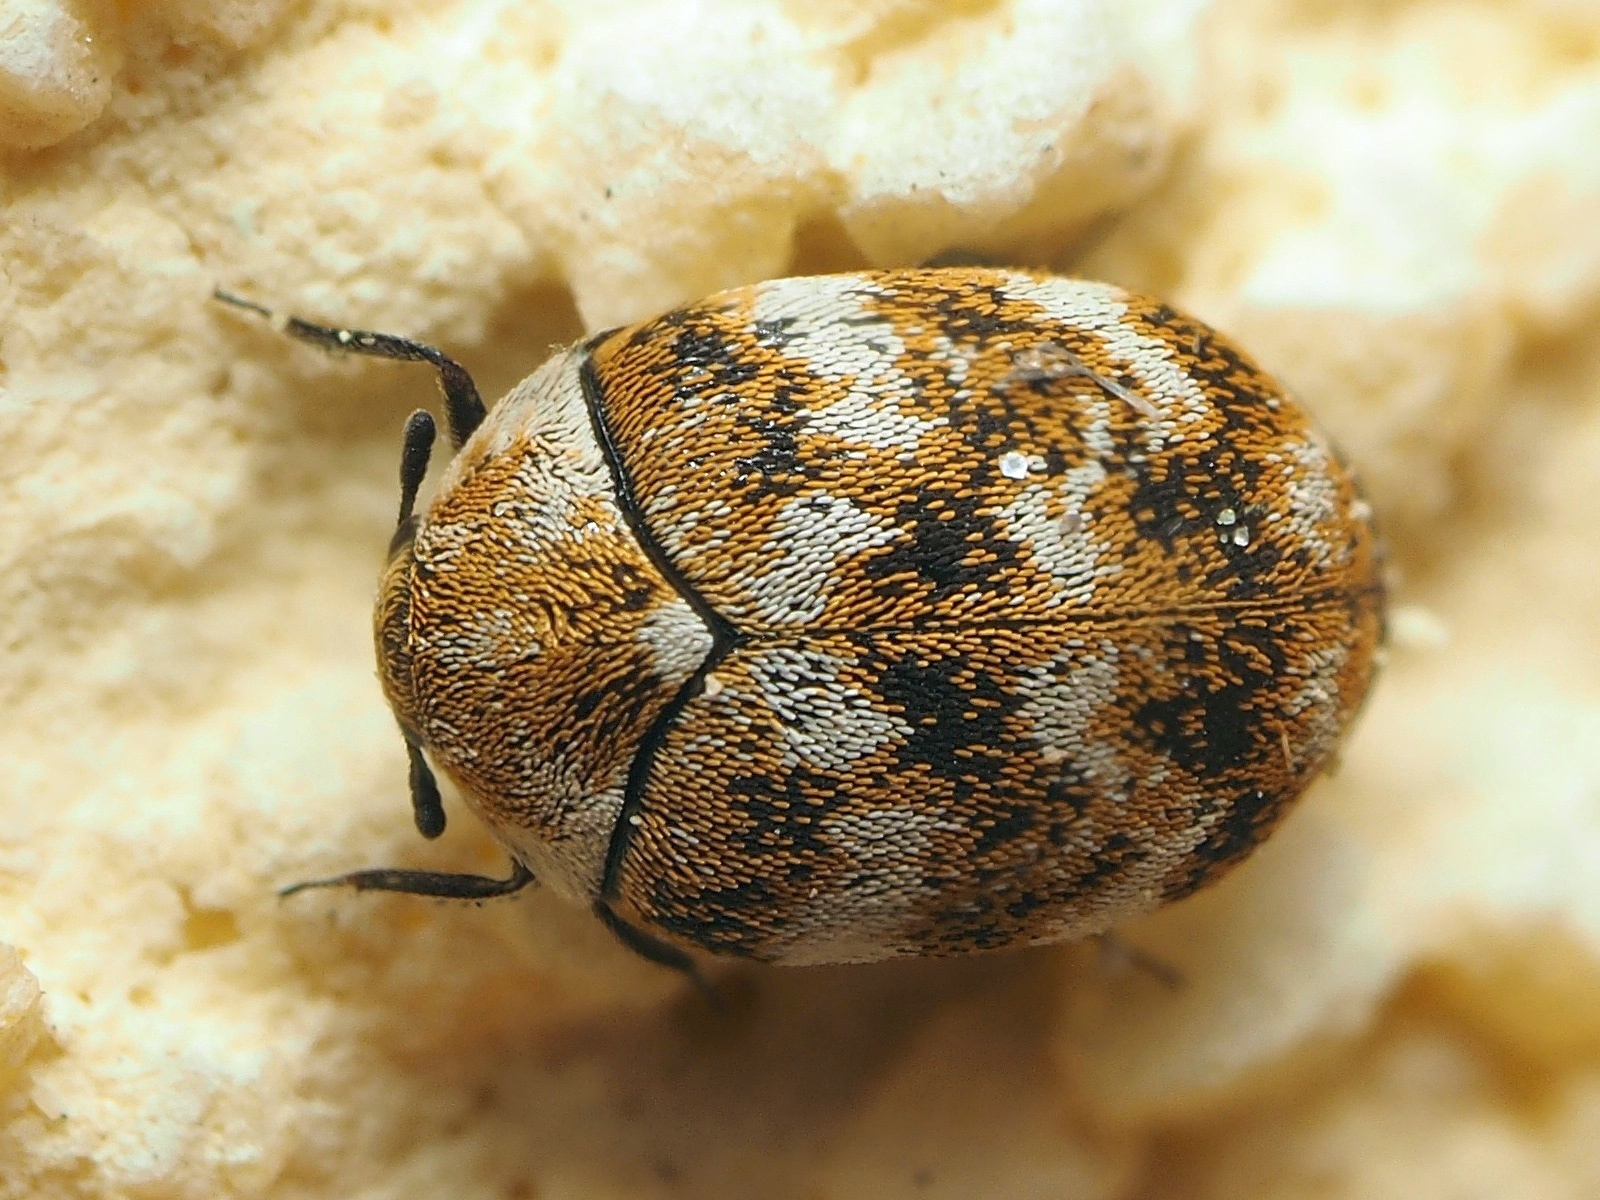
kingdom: Animalia
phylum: Arthropoda
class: Insecta
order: Coleoptera
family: Dermestidae
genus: Anthrenus
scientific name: Anthrenus verbasci
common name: Varied carpet beetle
